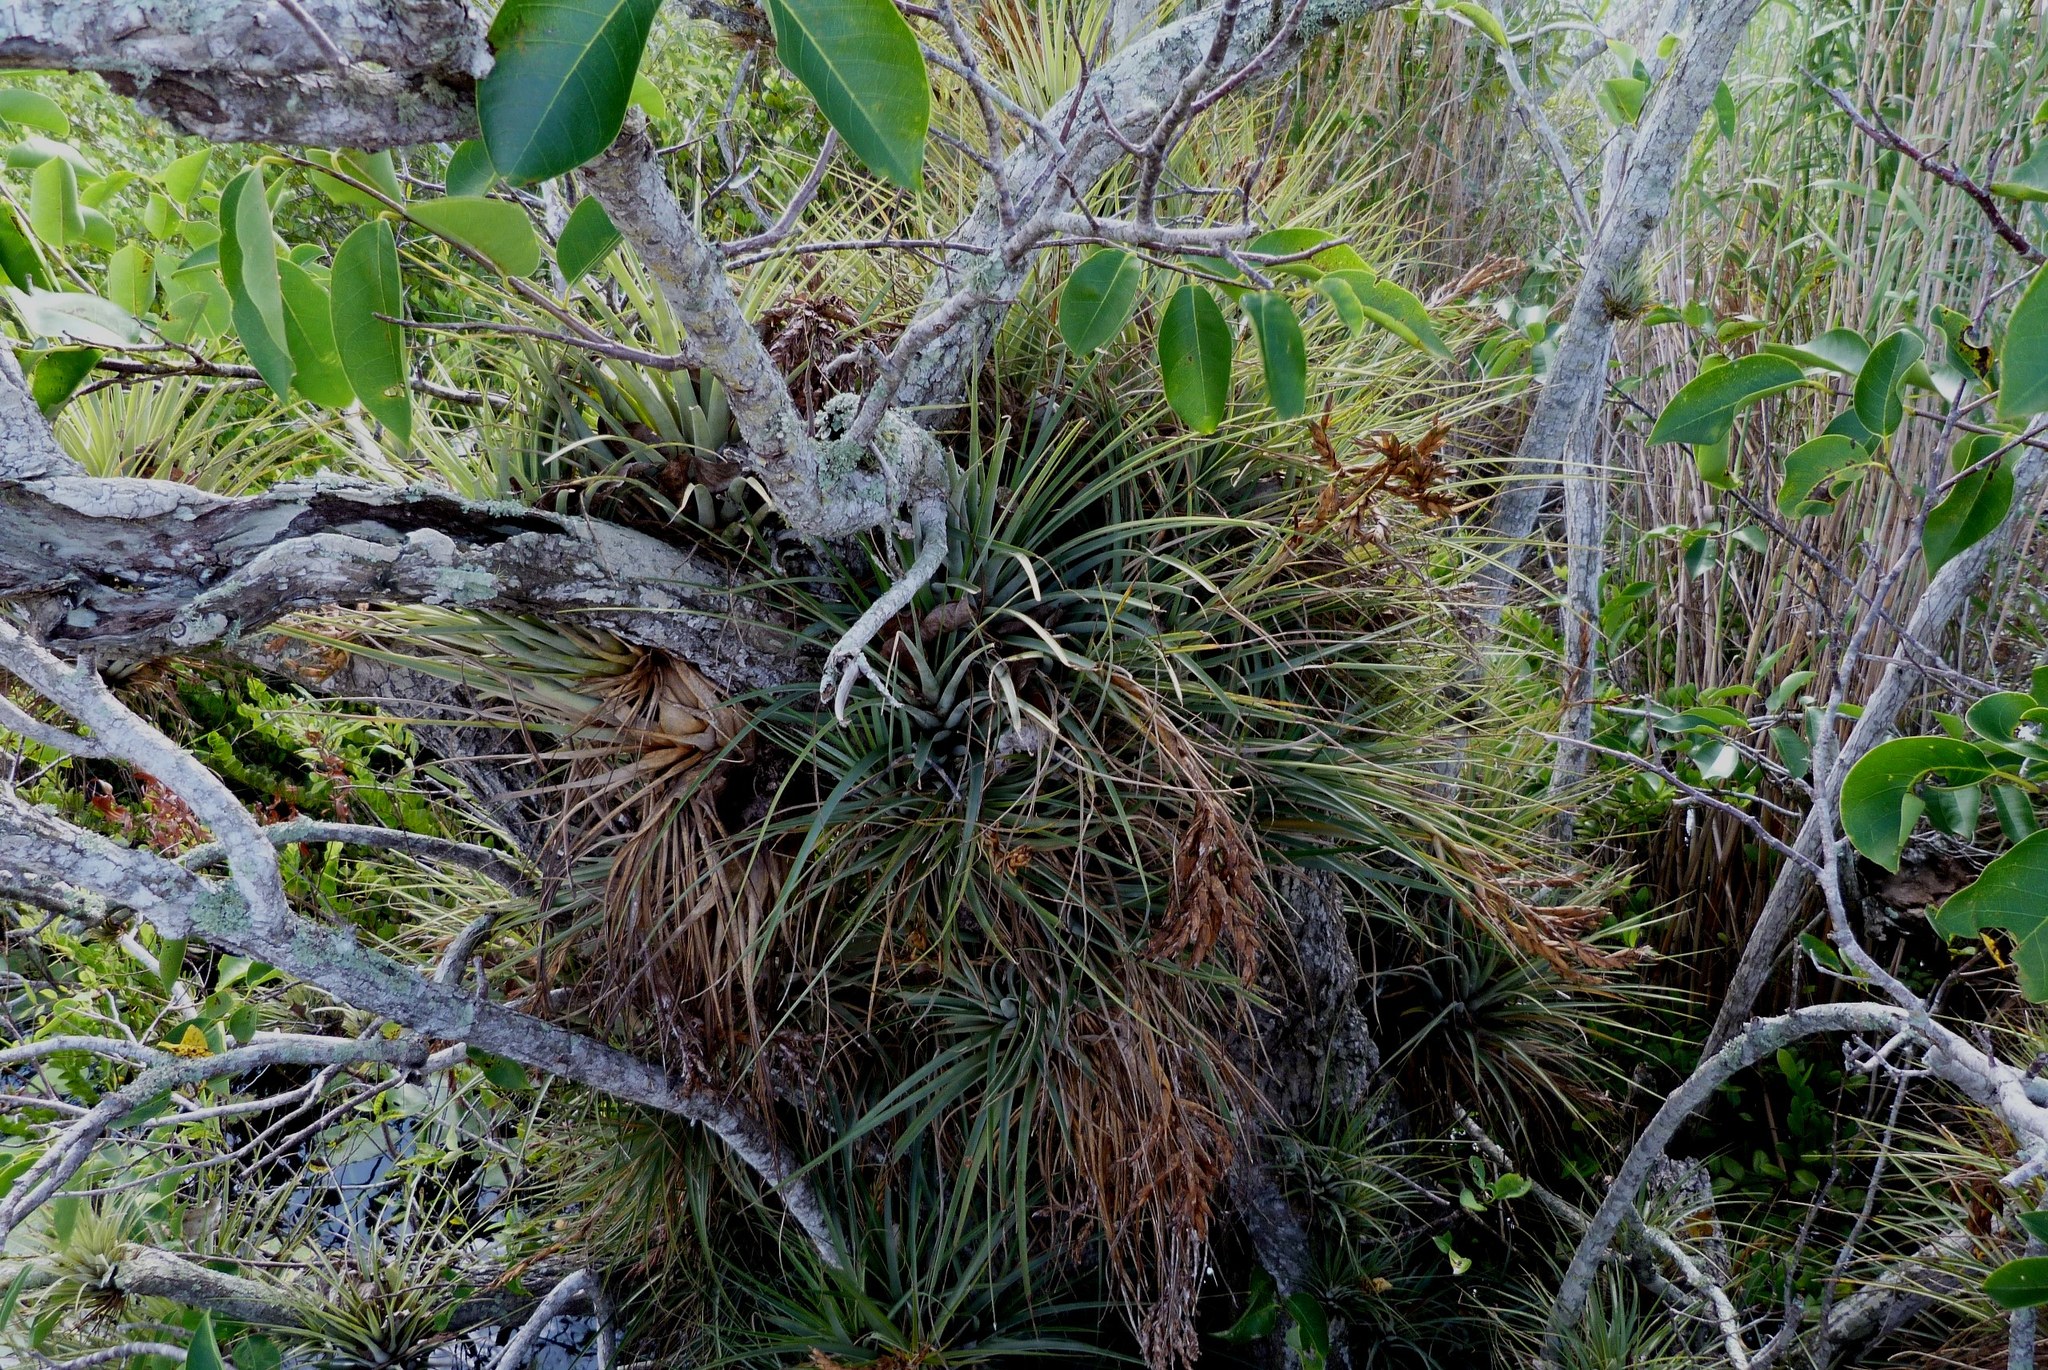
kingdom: Plantae
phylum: Tracheophyta
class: Liliopsida
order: Poales
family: Bromeliaceae
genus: Tillandsia
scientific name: Tillandsia fasciculata
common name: Giant airplant
